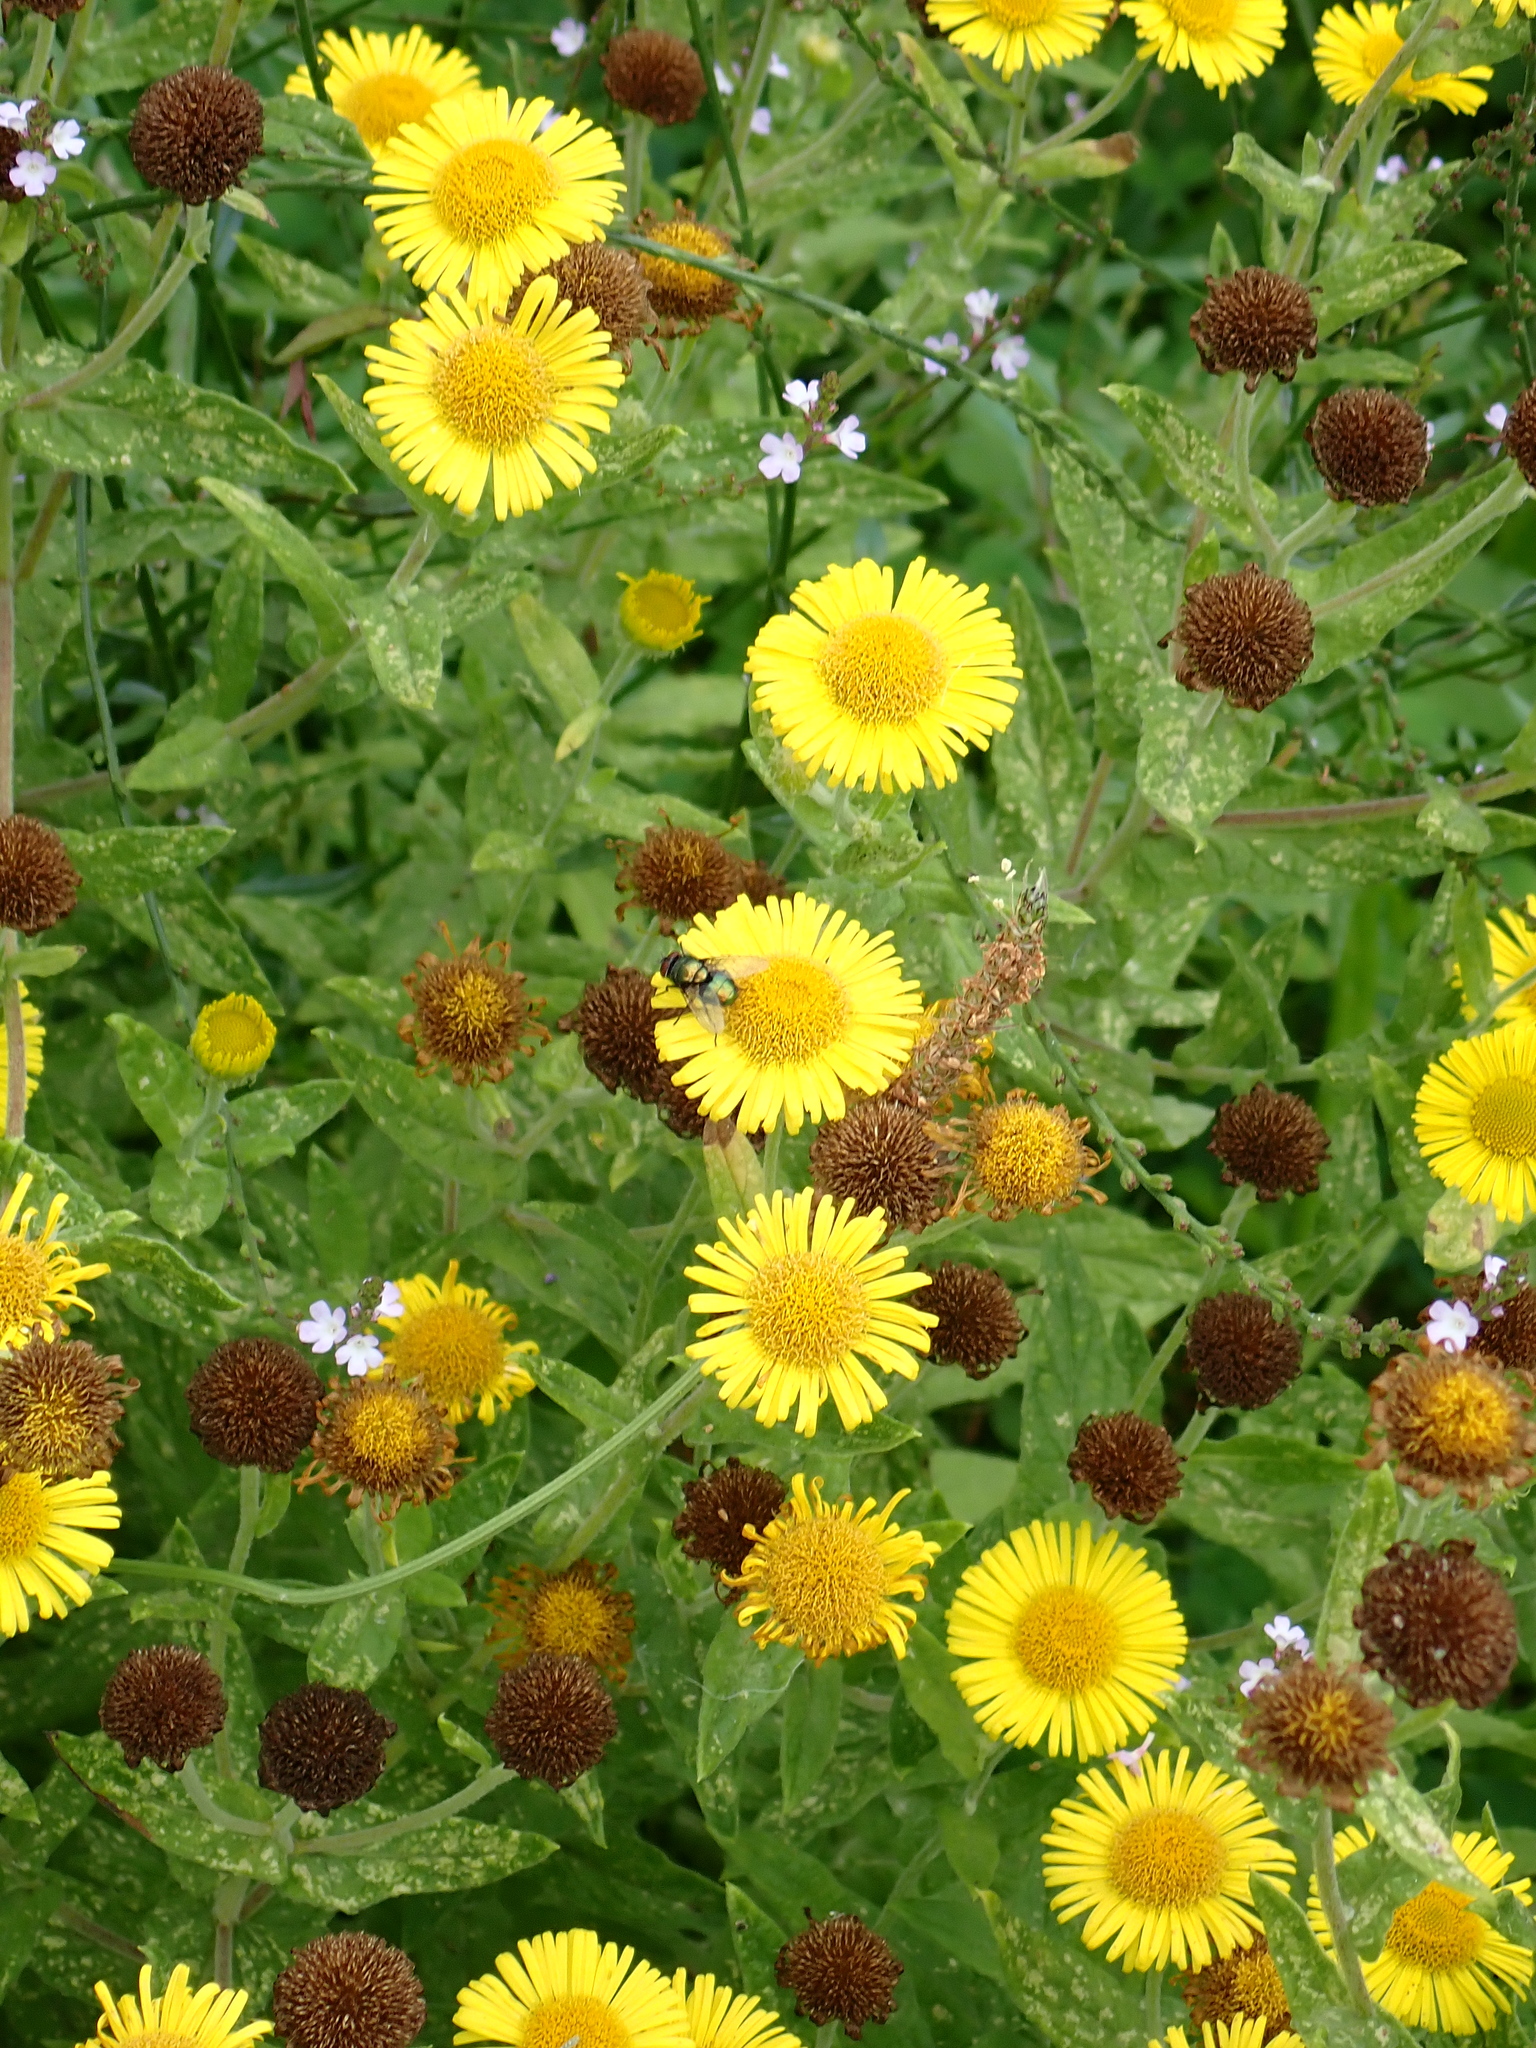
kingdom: Plantae
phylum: Tracheophyta
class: Magnoliopsida
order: Asterales
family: Asteraceae
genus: Pulicaria
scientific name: Pulicaria dysenterica
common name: Common fleabane
